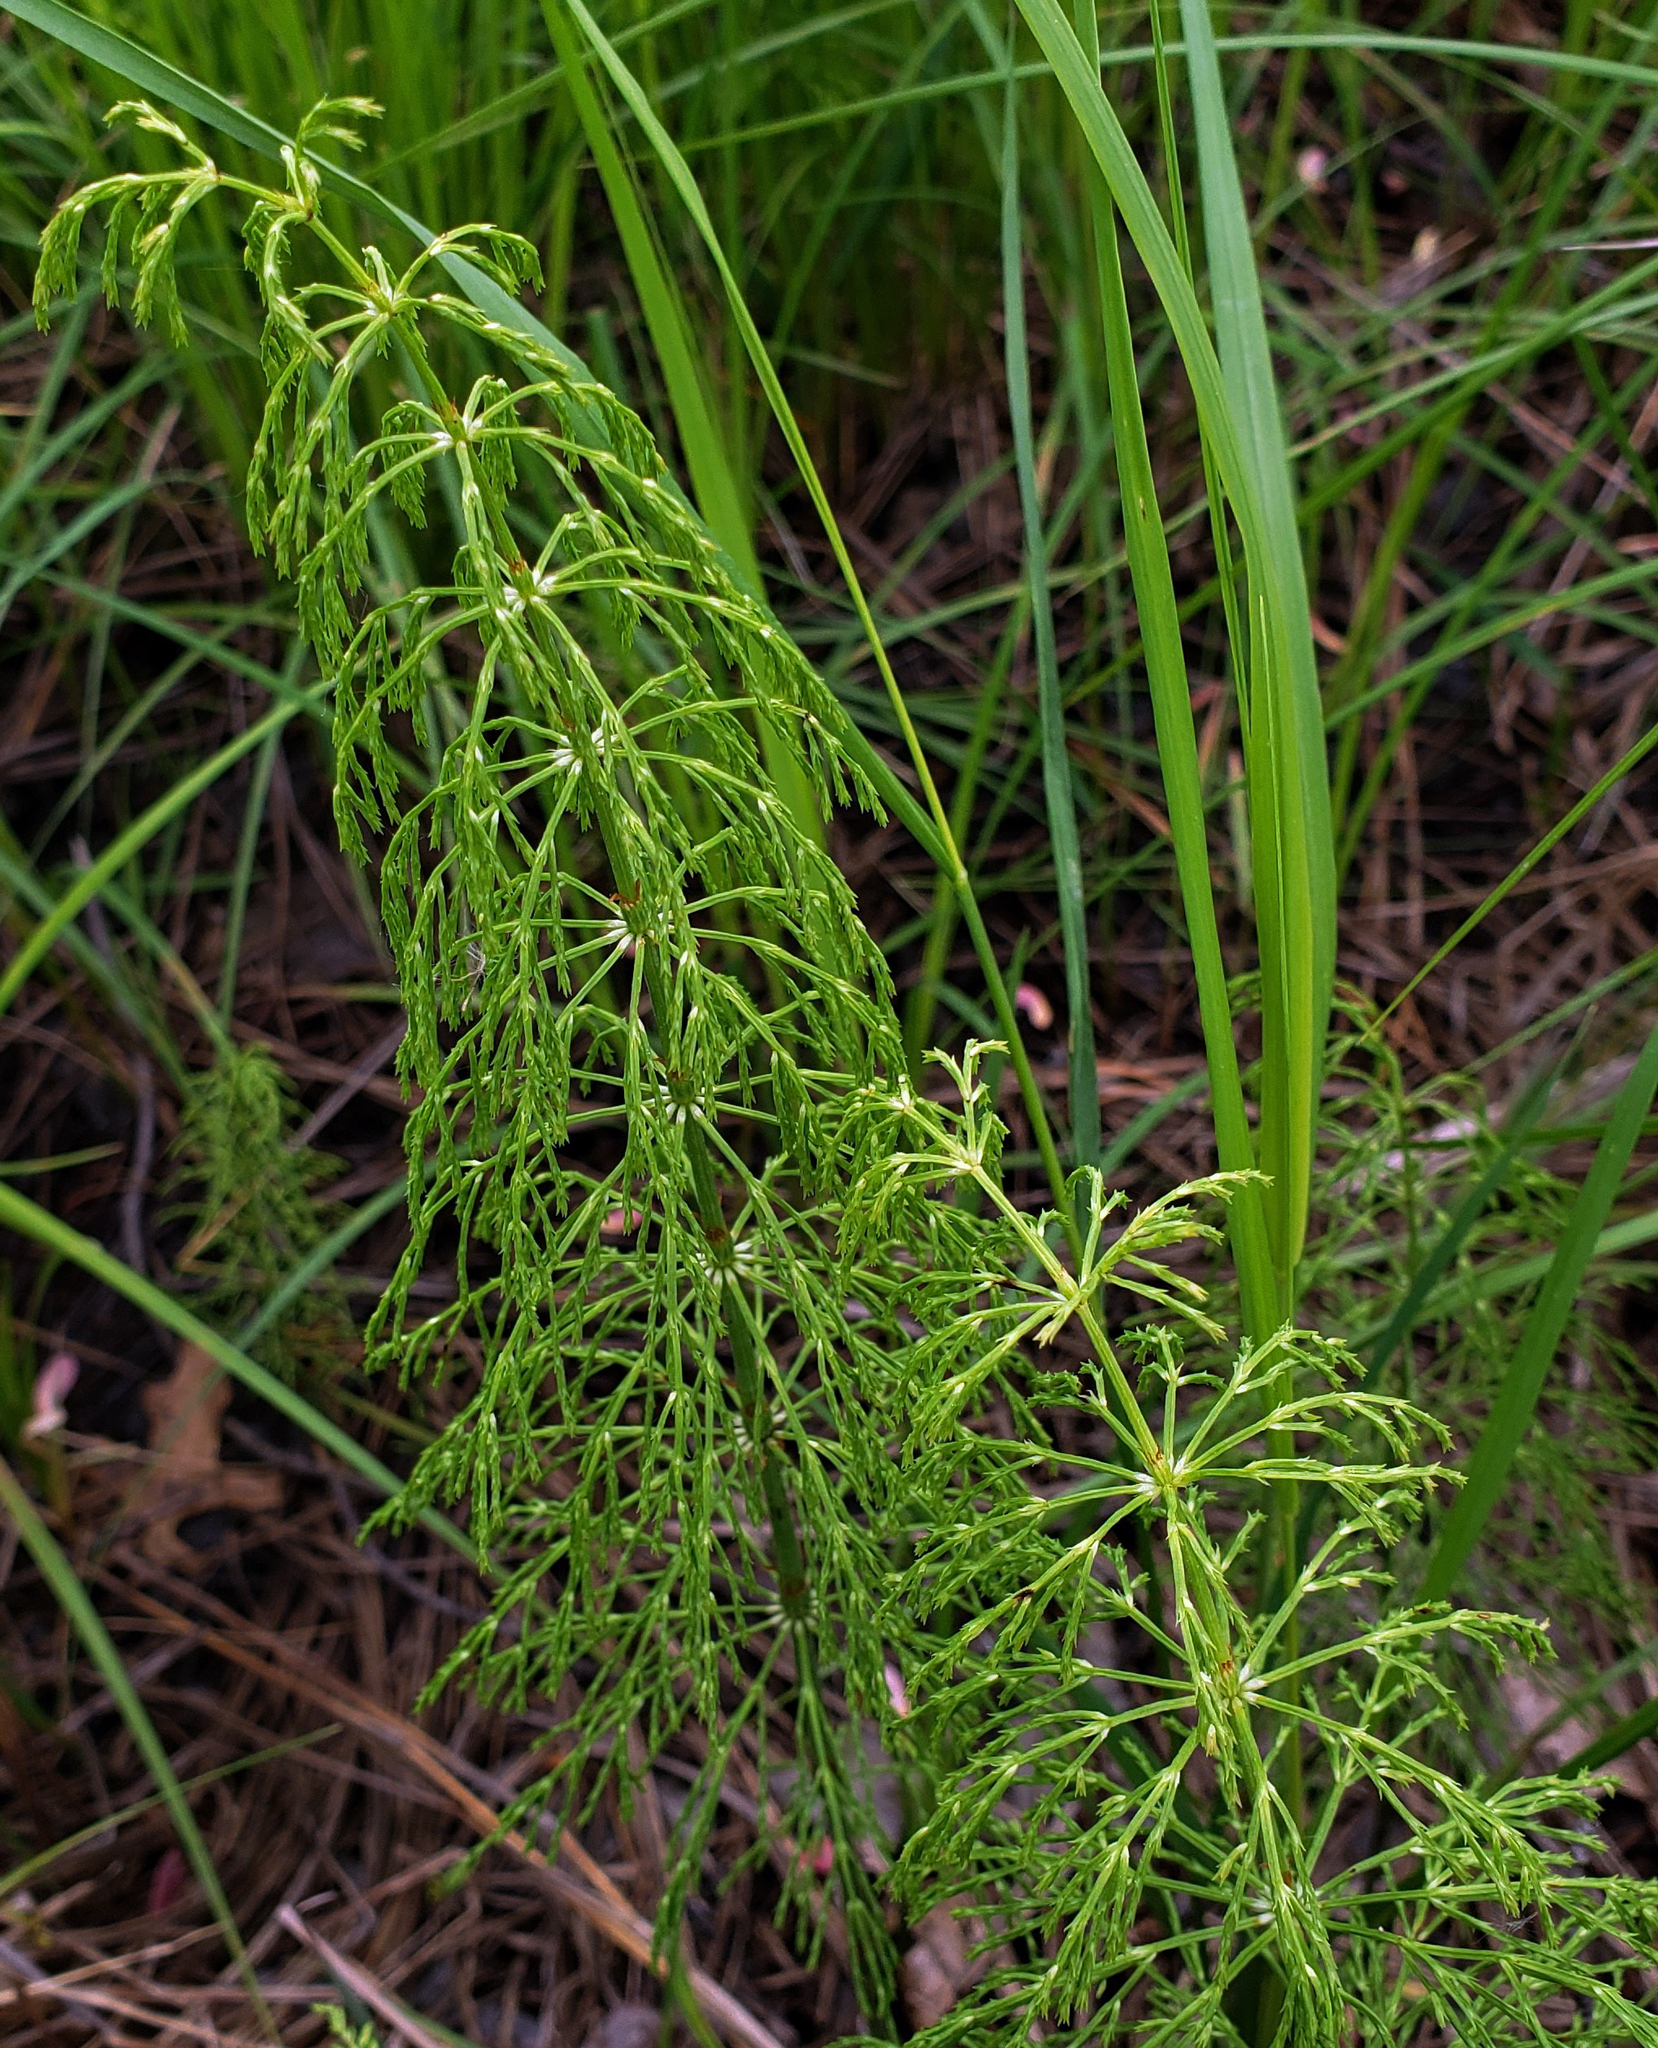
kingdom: Plantae
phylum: Tracheophyta
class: Polypodiopsida
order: Equisetales
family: Equisetaceae
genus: Equisetum
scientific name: Equisetum sylvaticum
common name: Wood horsetail
